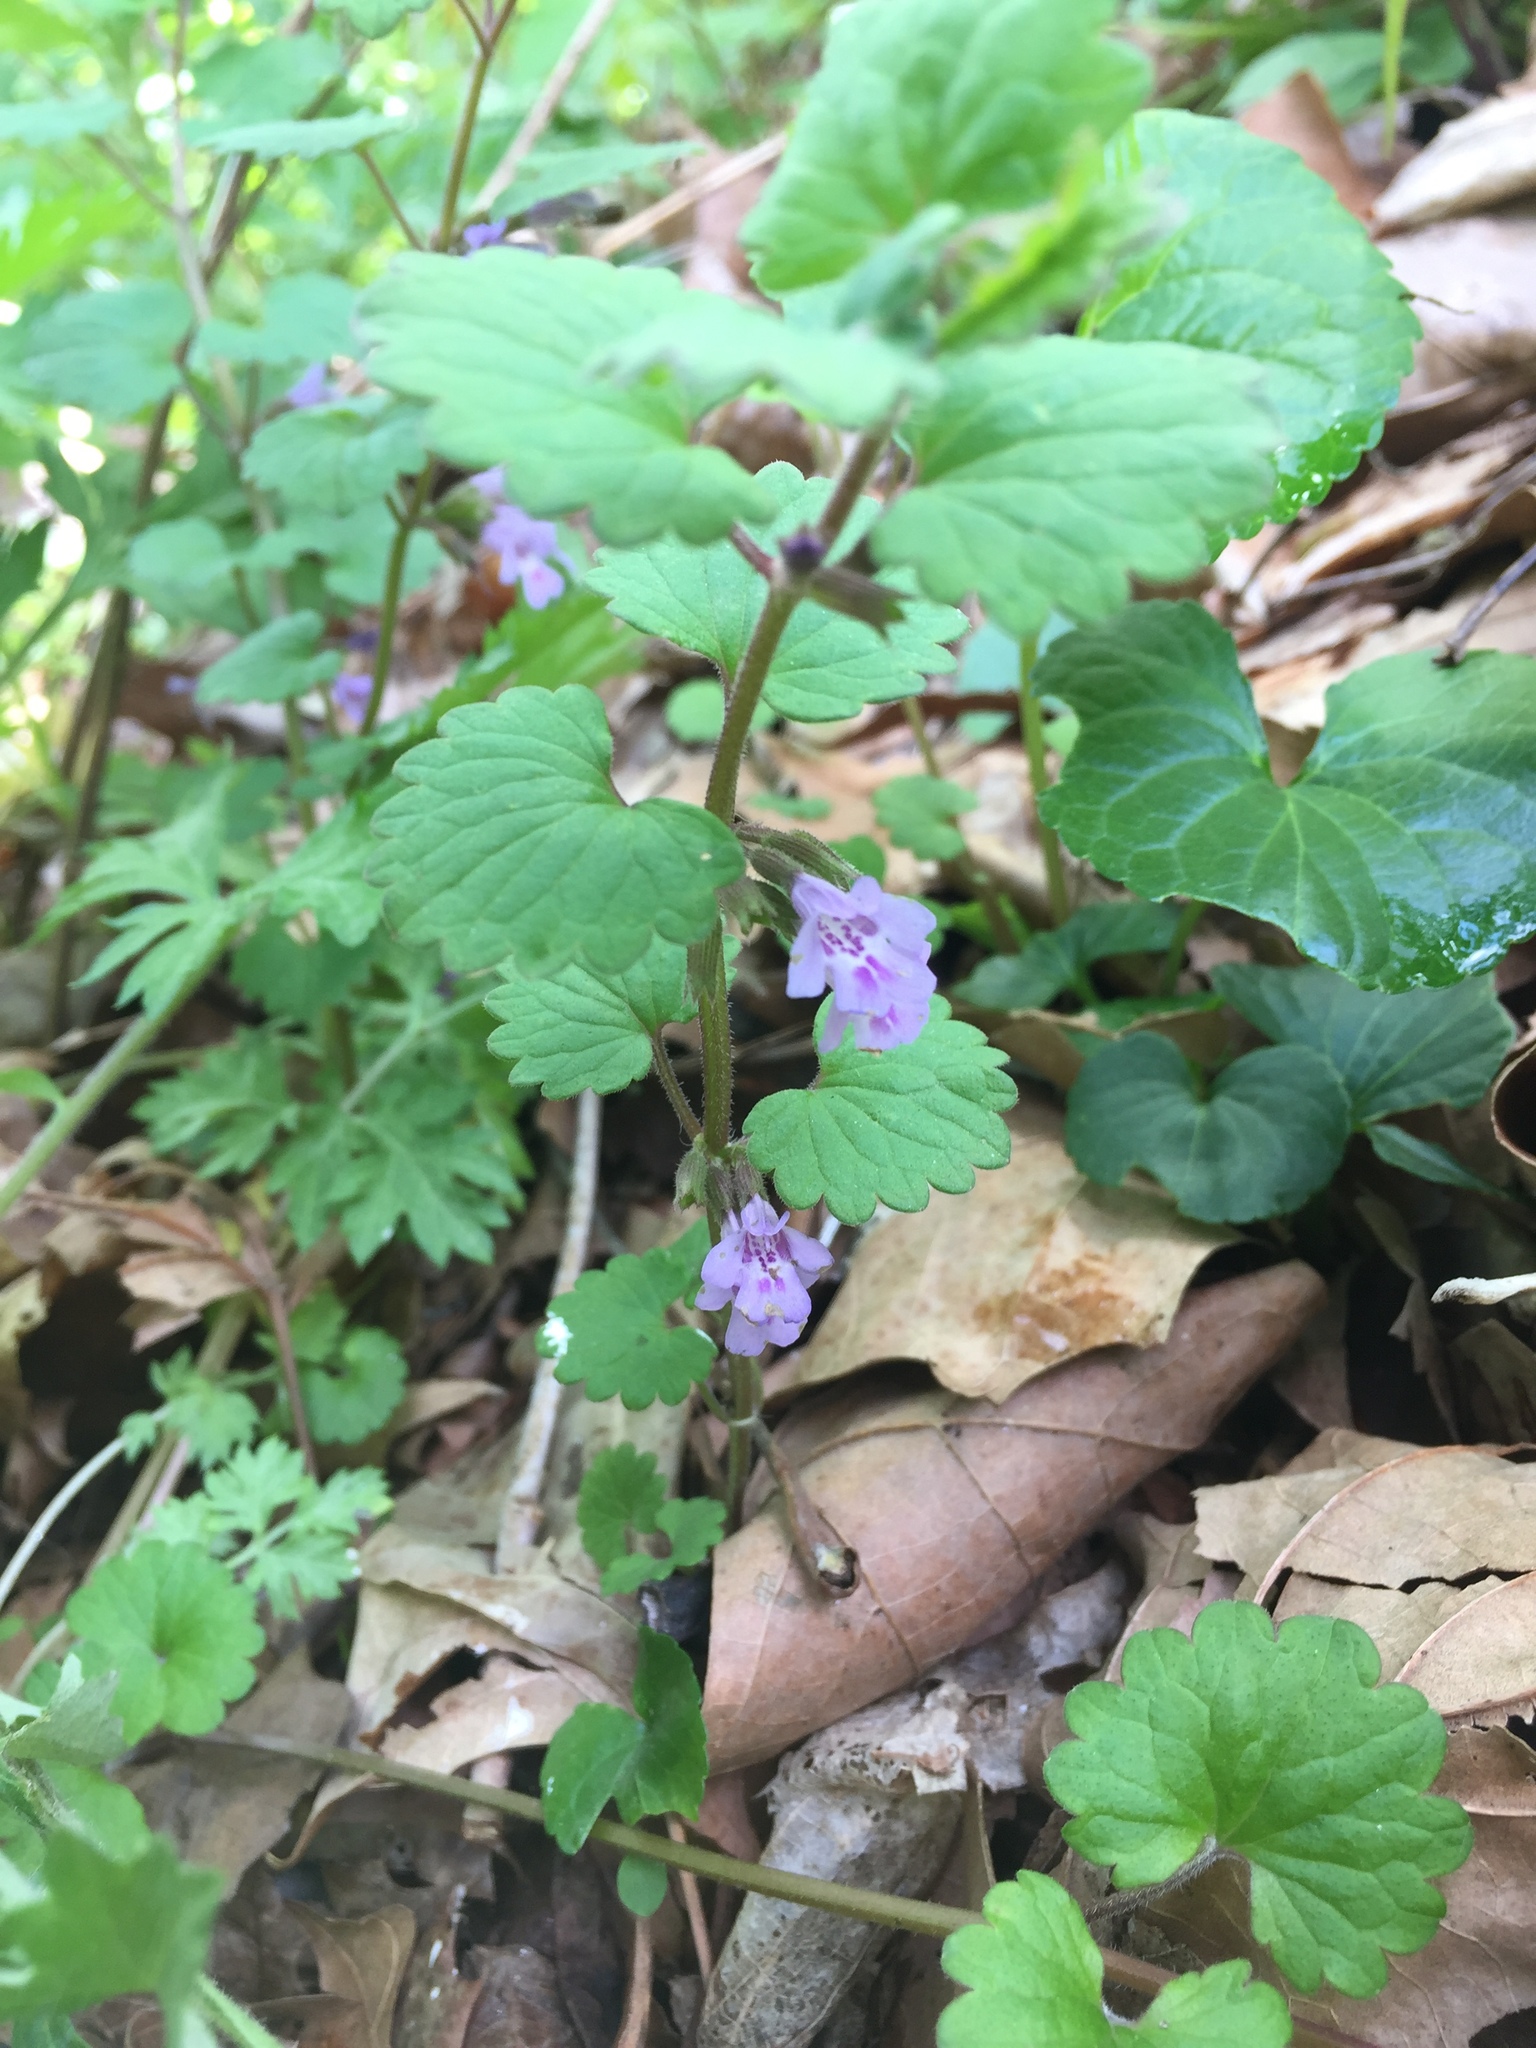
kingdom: Plantae
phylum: Tracheophyta
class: Magnoliopsida
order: Lamiales
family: Lamiaceae
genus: Glechoma
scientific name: Glechoma hederacea
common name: Ground ivy
